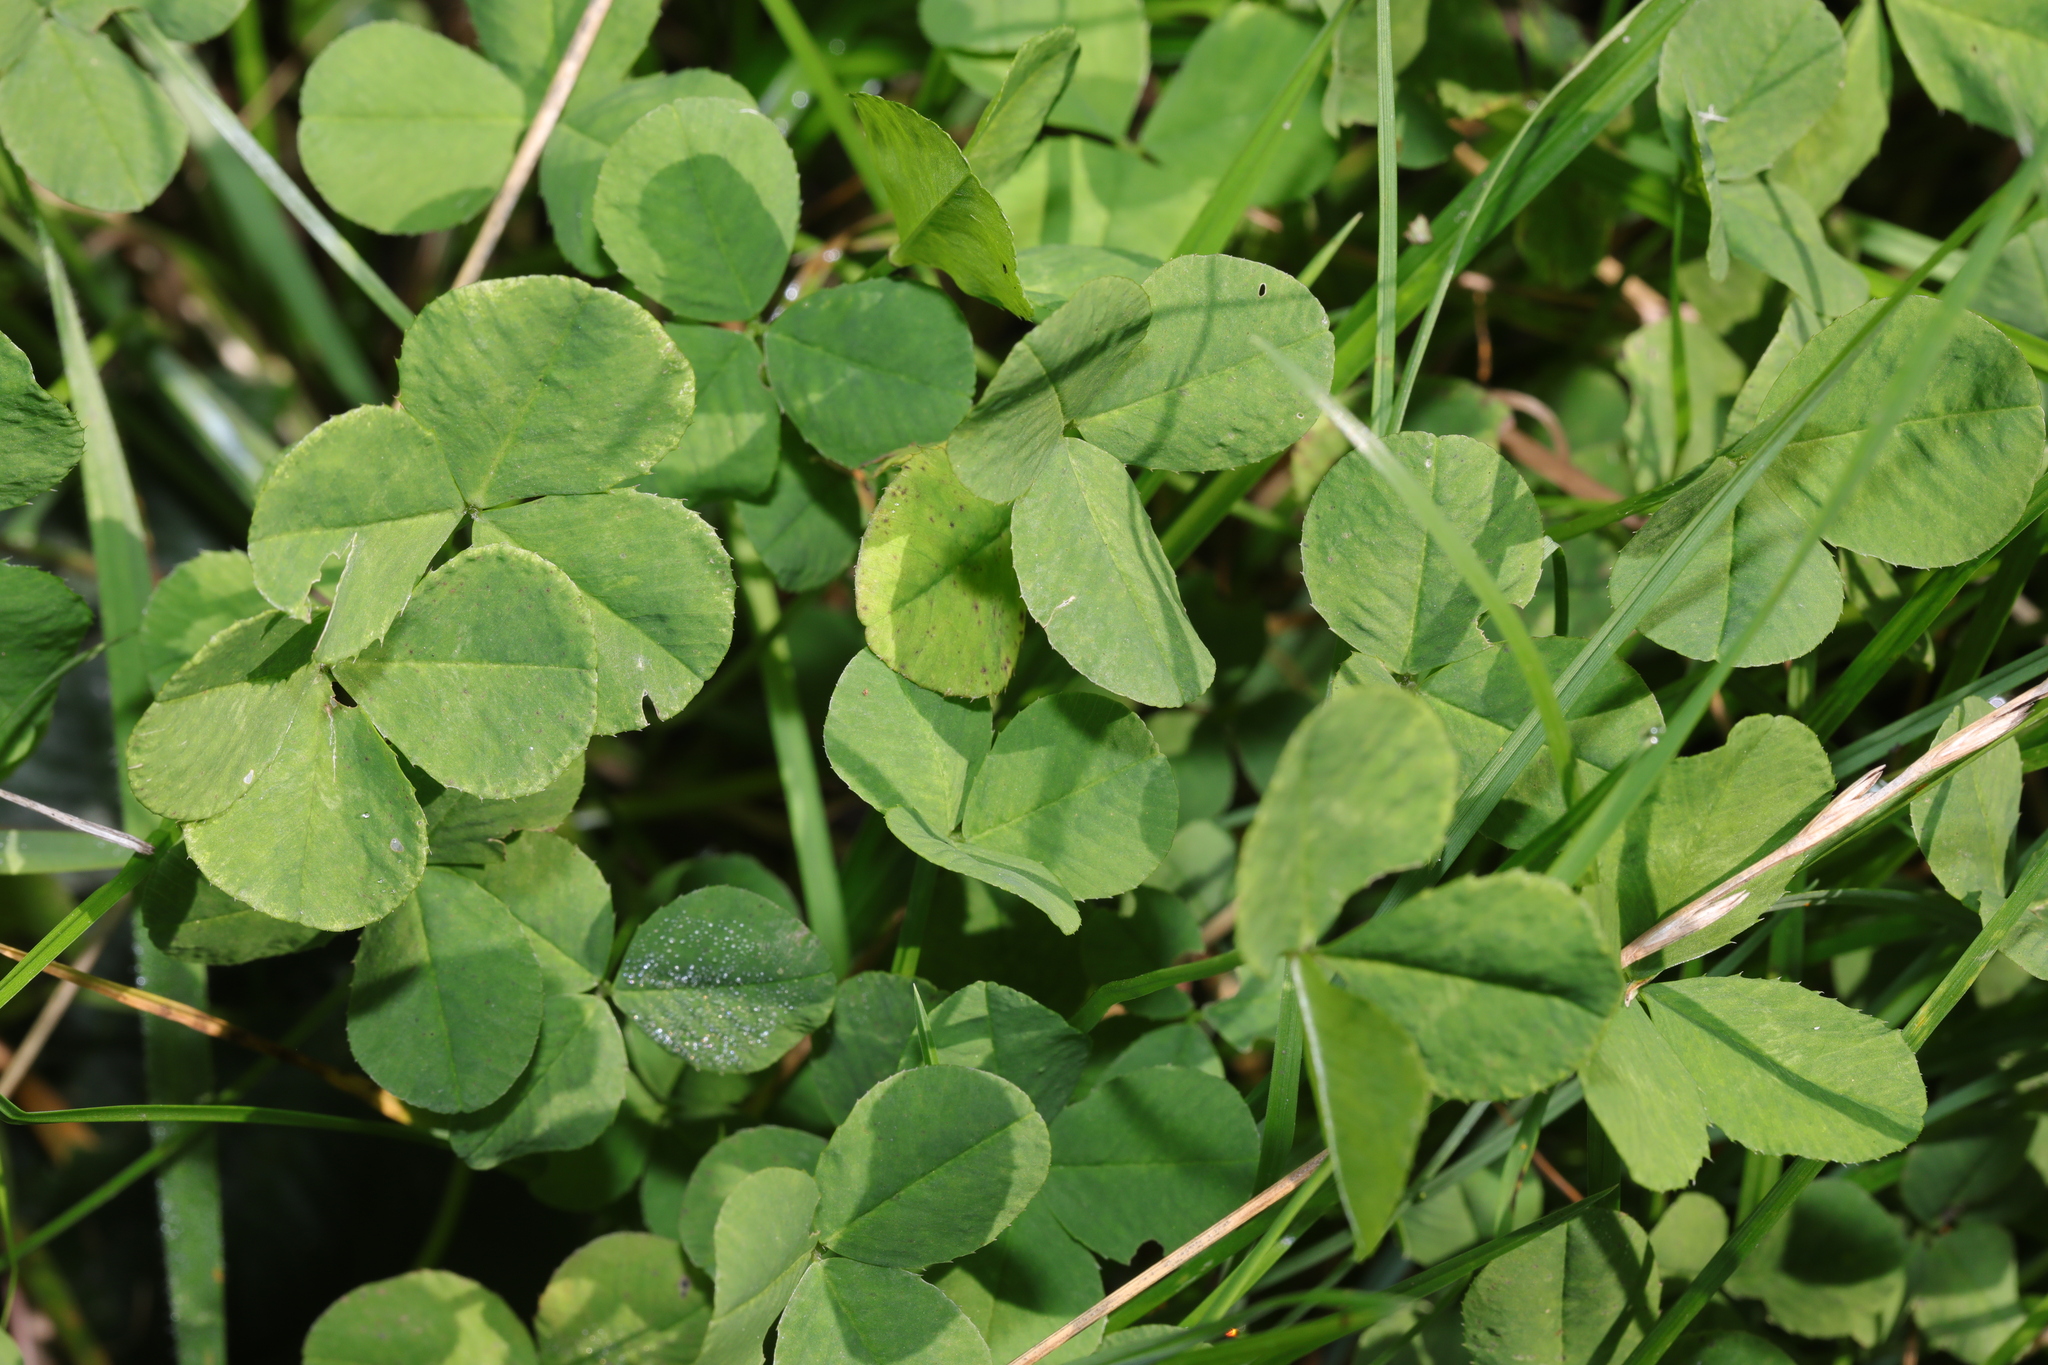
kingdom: Plantae
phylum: Tracheophyta
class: Magnoliopsida
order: Fabales
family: Fabaceae
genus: Trifolium
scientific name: Trifolium repens
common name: White clover
